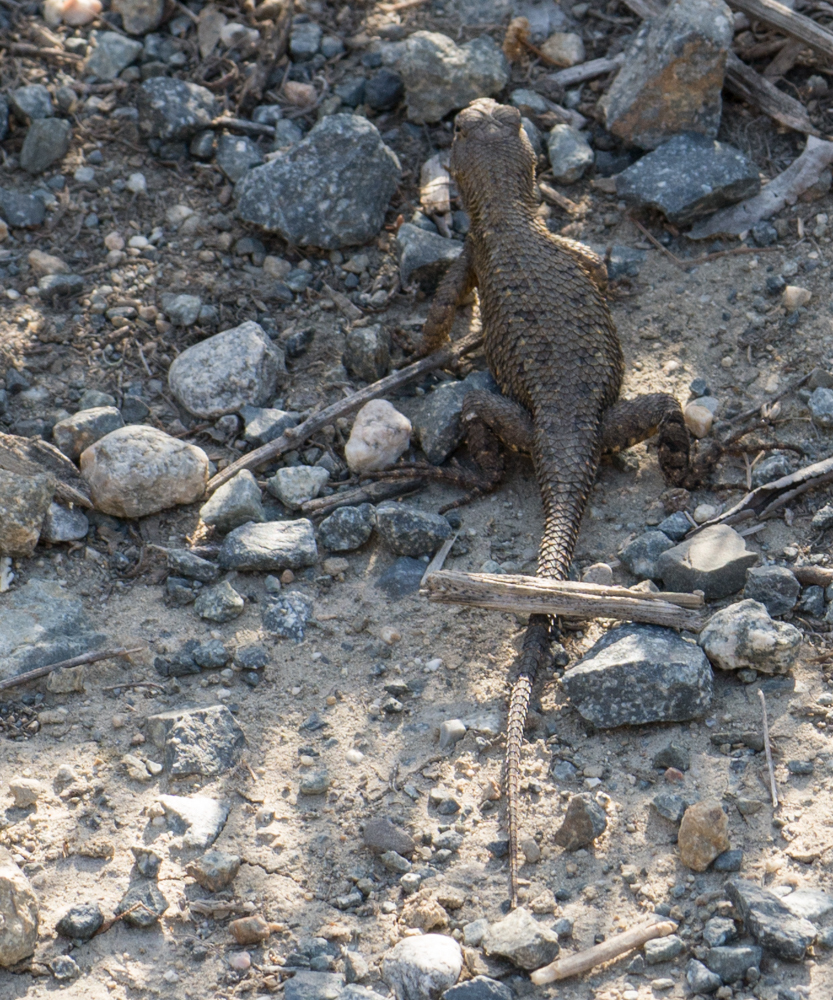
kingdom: Animalia
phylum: Chordata
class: Squamata
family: Phrynosomatidae
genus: Sceloporus
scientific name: Sceloporus occidentalis
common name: Western fence lizard
